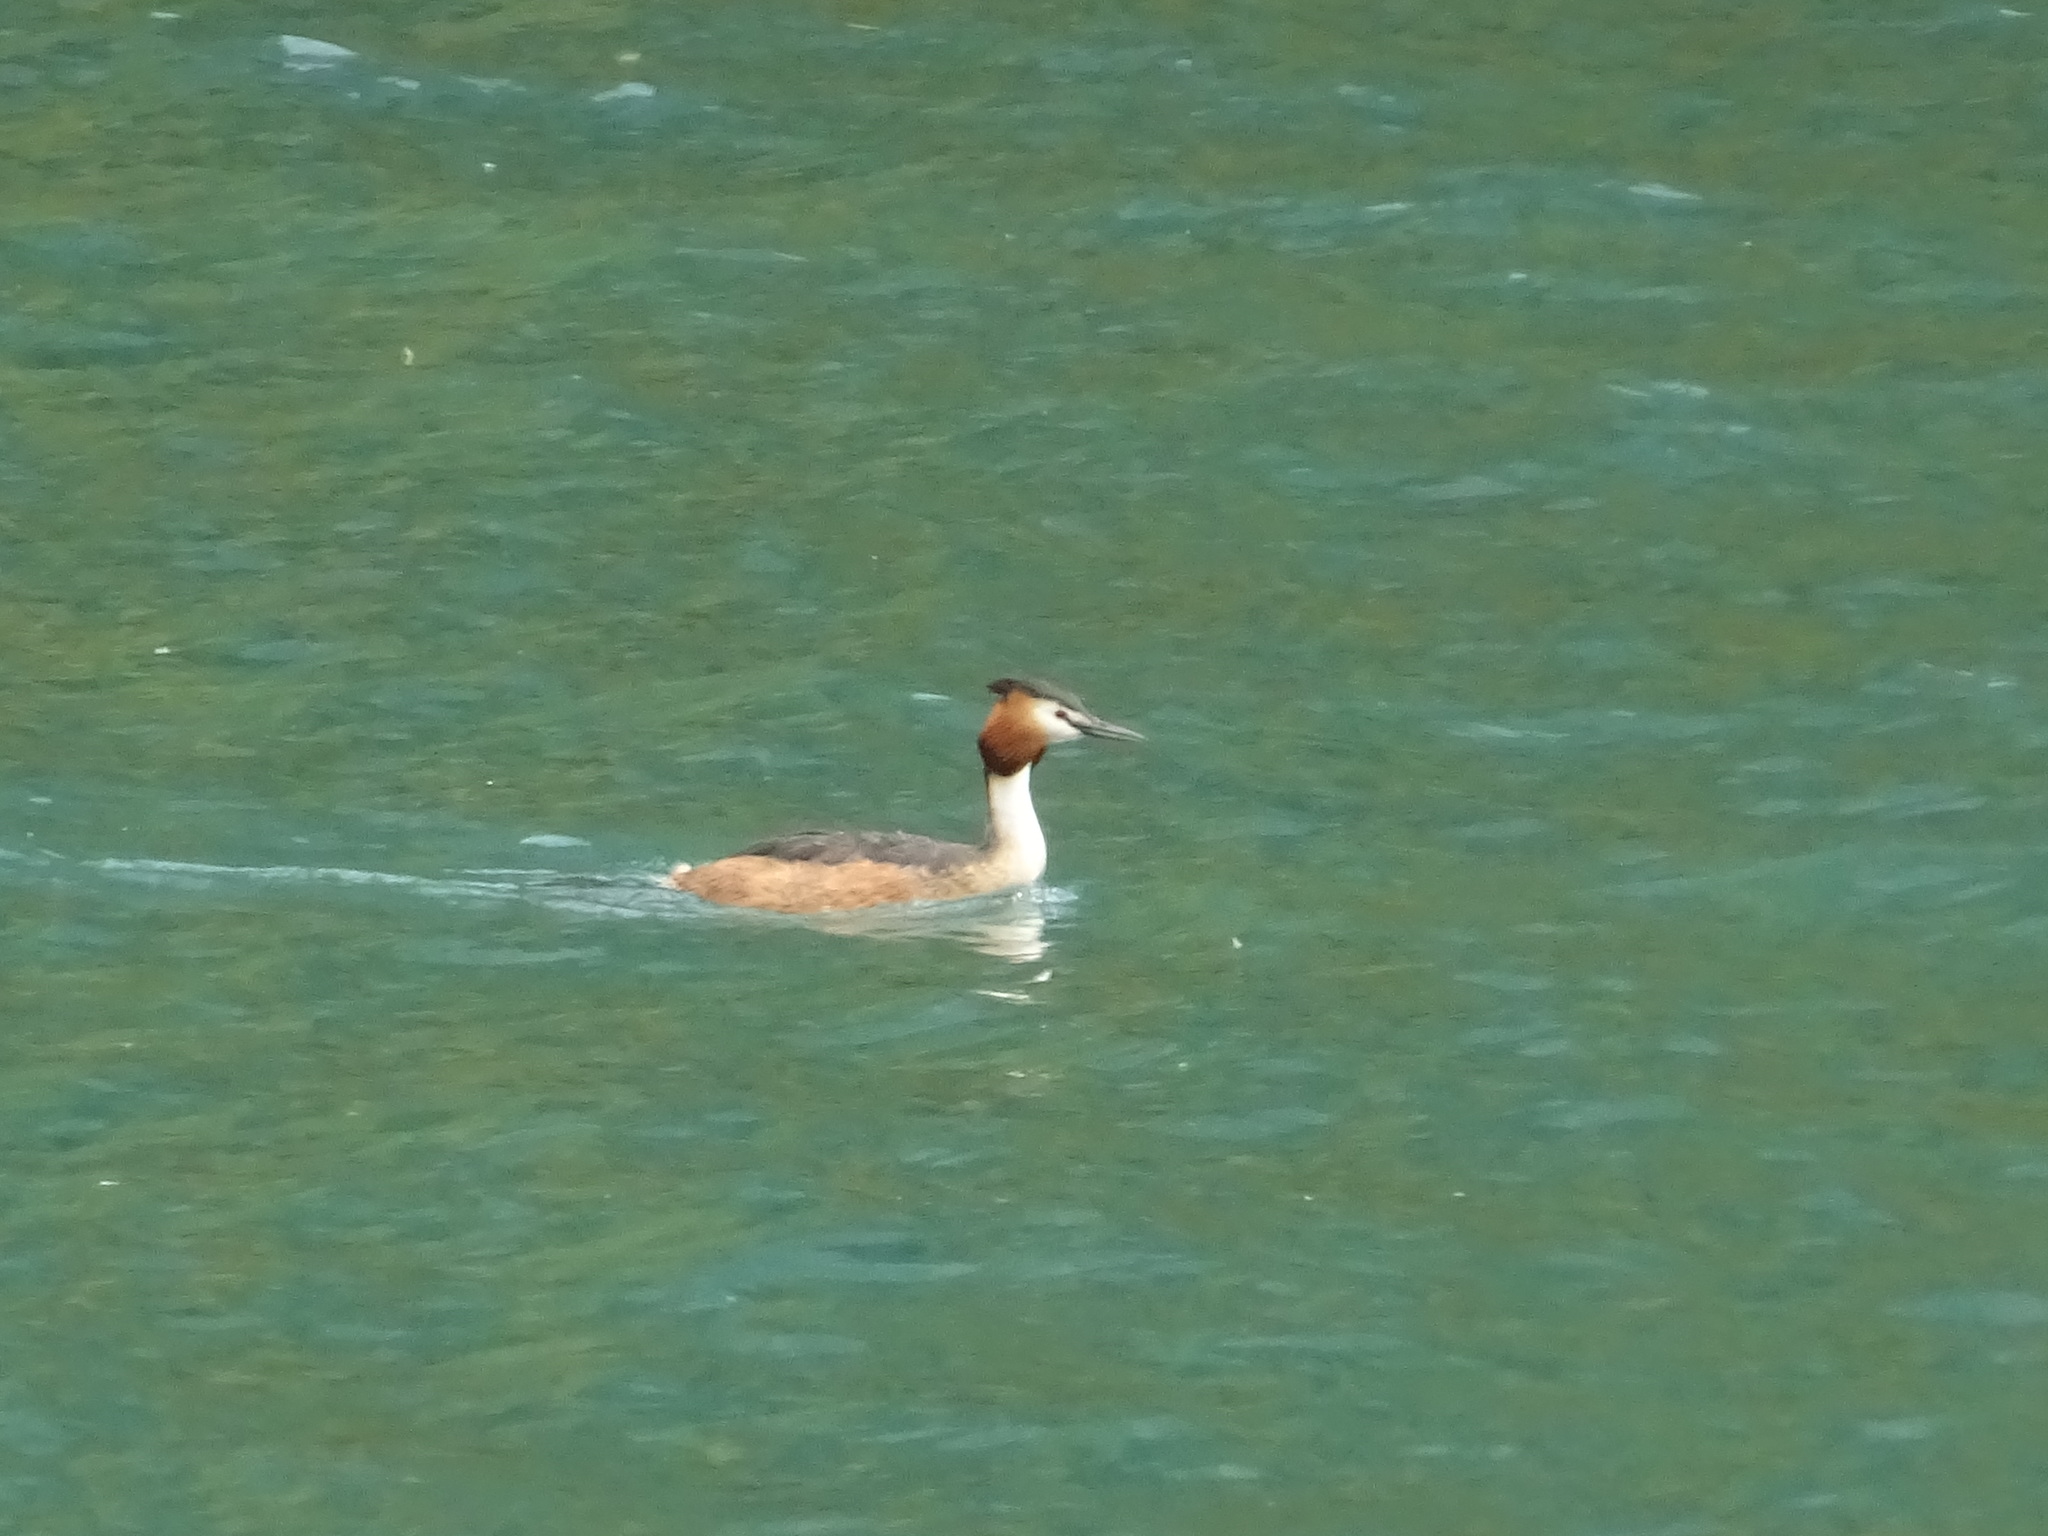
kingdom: Animalia
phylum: Chordata
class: Aves
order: Podicipediformes
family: Podicipedidae
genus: Podiceps
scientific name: Podiceps cristatus
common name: Great crested grebe
